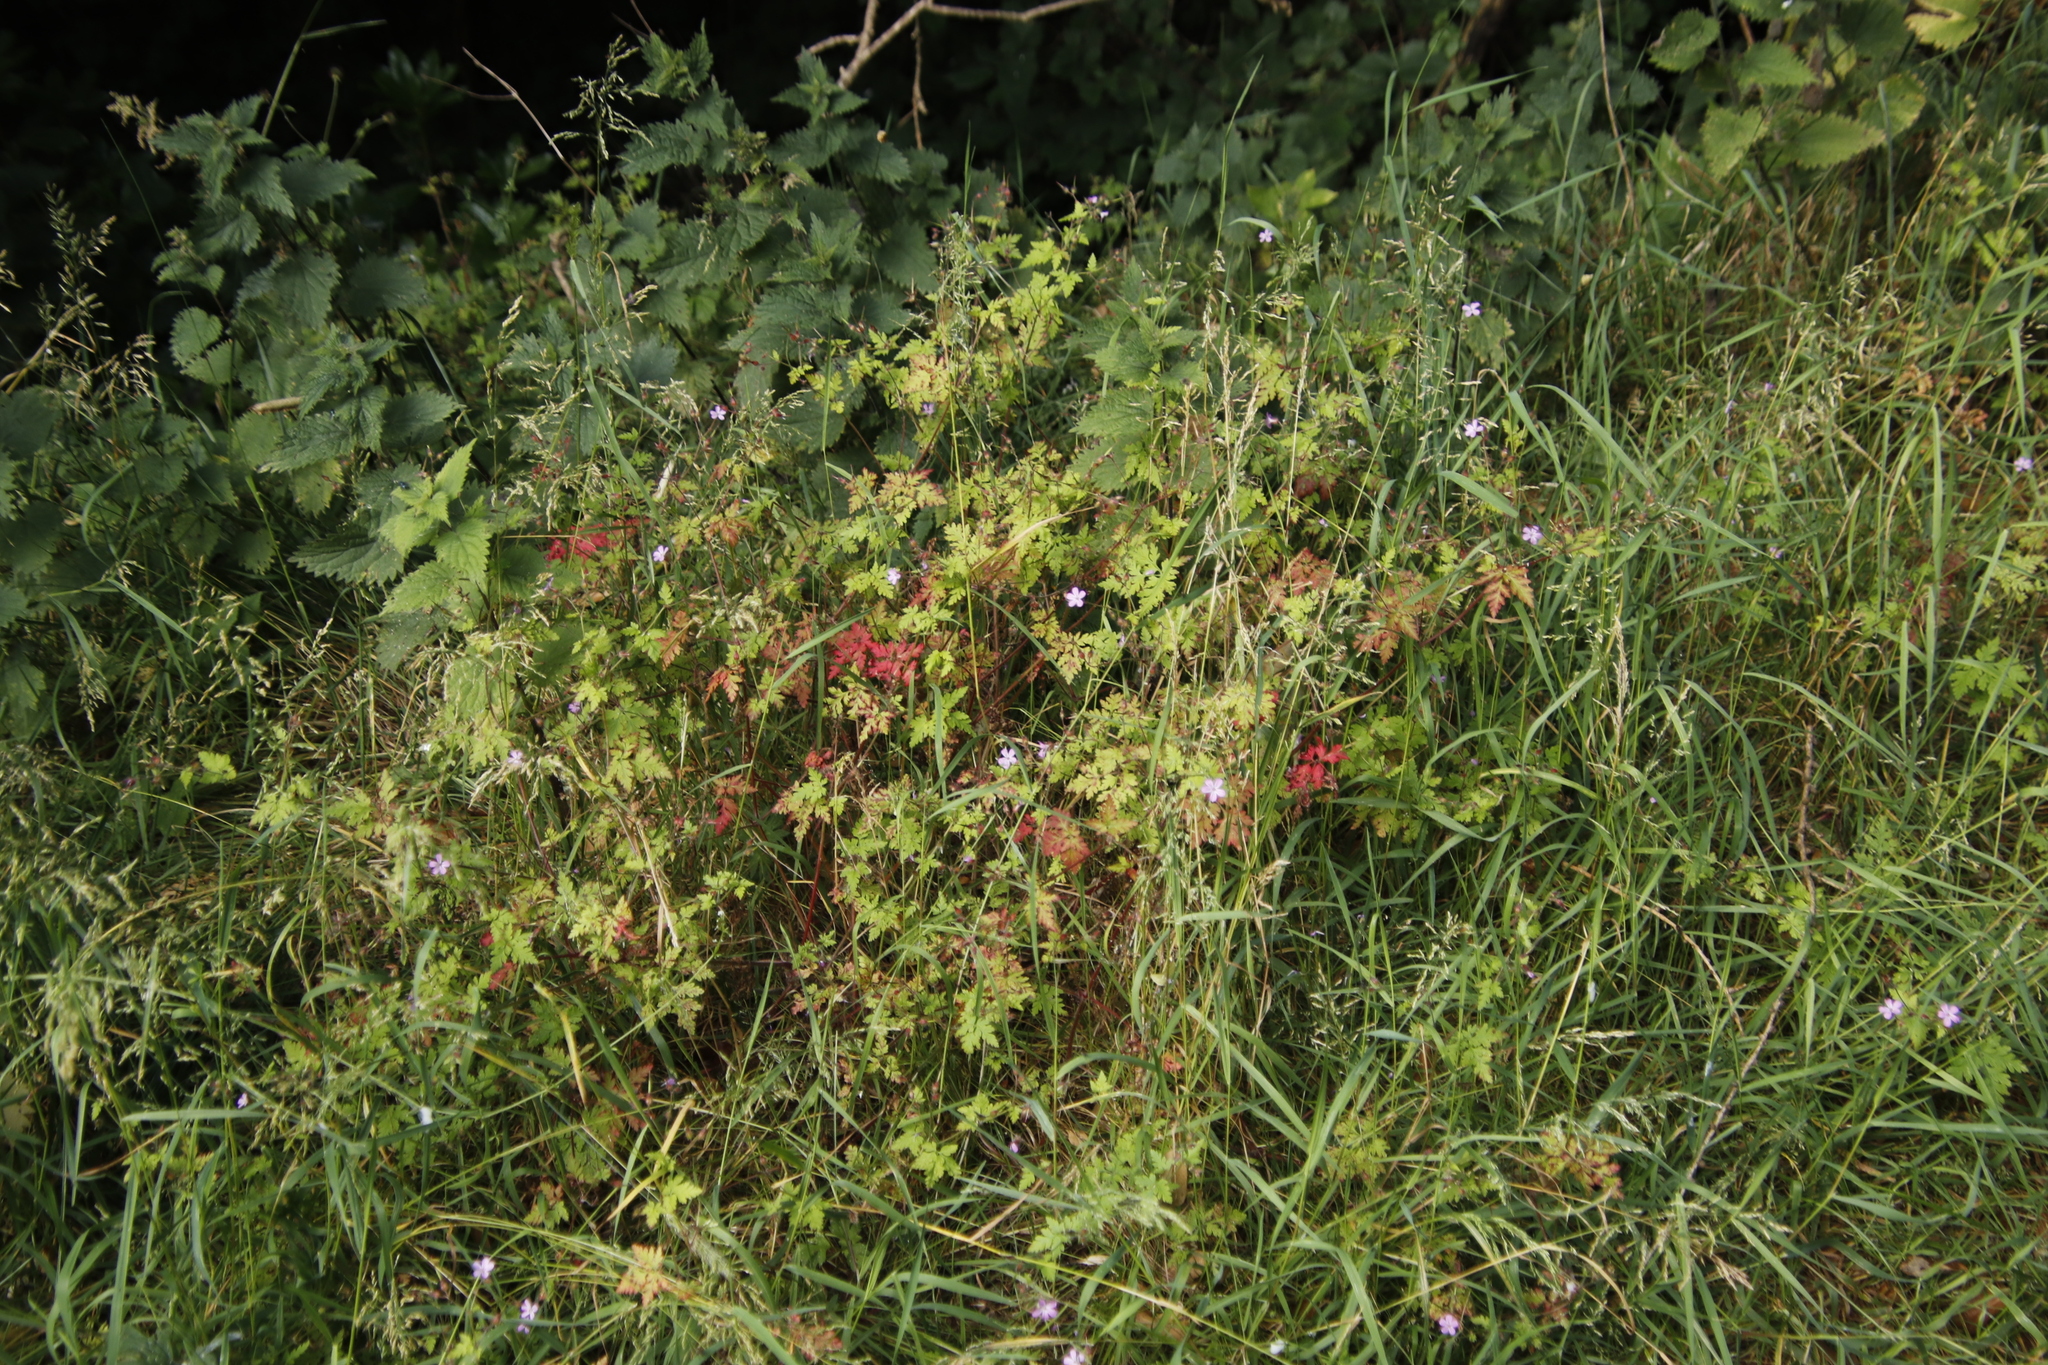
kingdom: Plantae
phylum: Tracheophyta
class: Magnoliopsida
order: Geraniales
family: Geraniaceae
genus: Geranium
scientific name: Geranium robertianum
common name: Herb-robert
